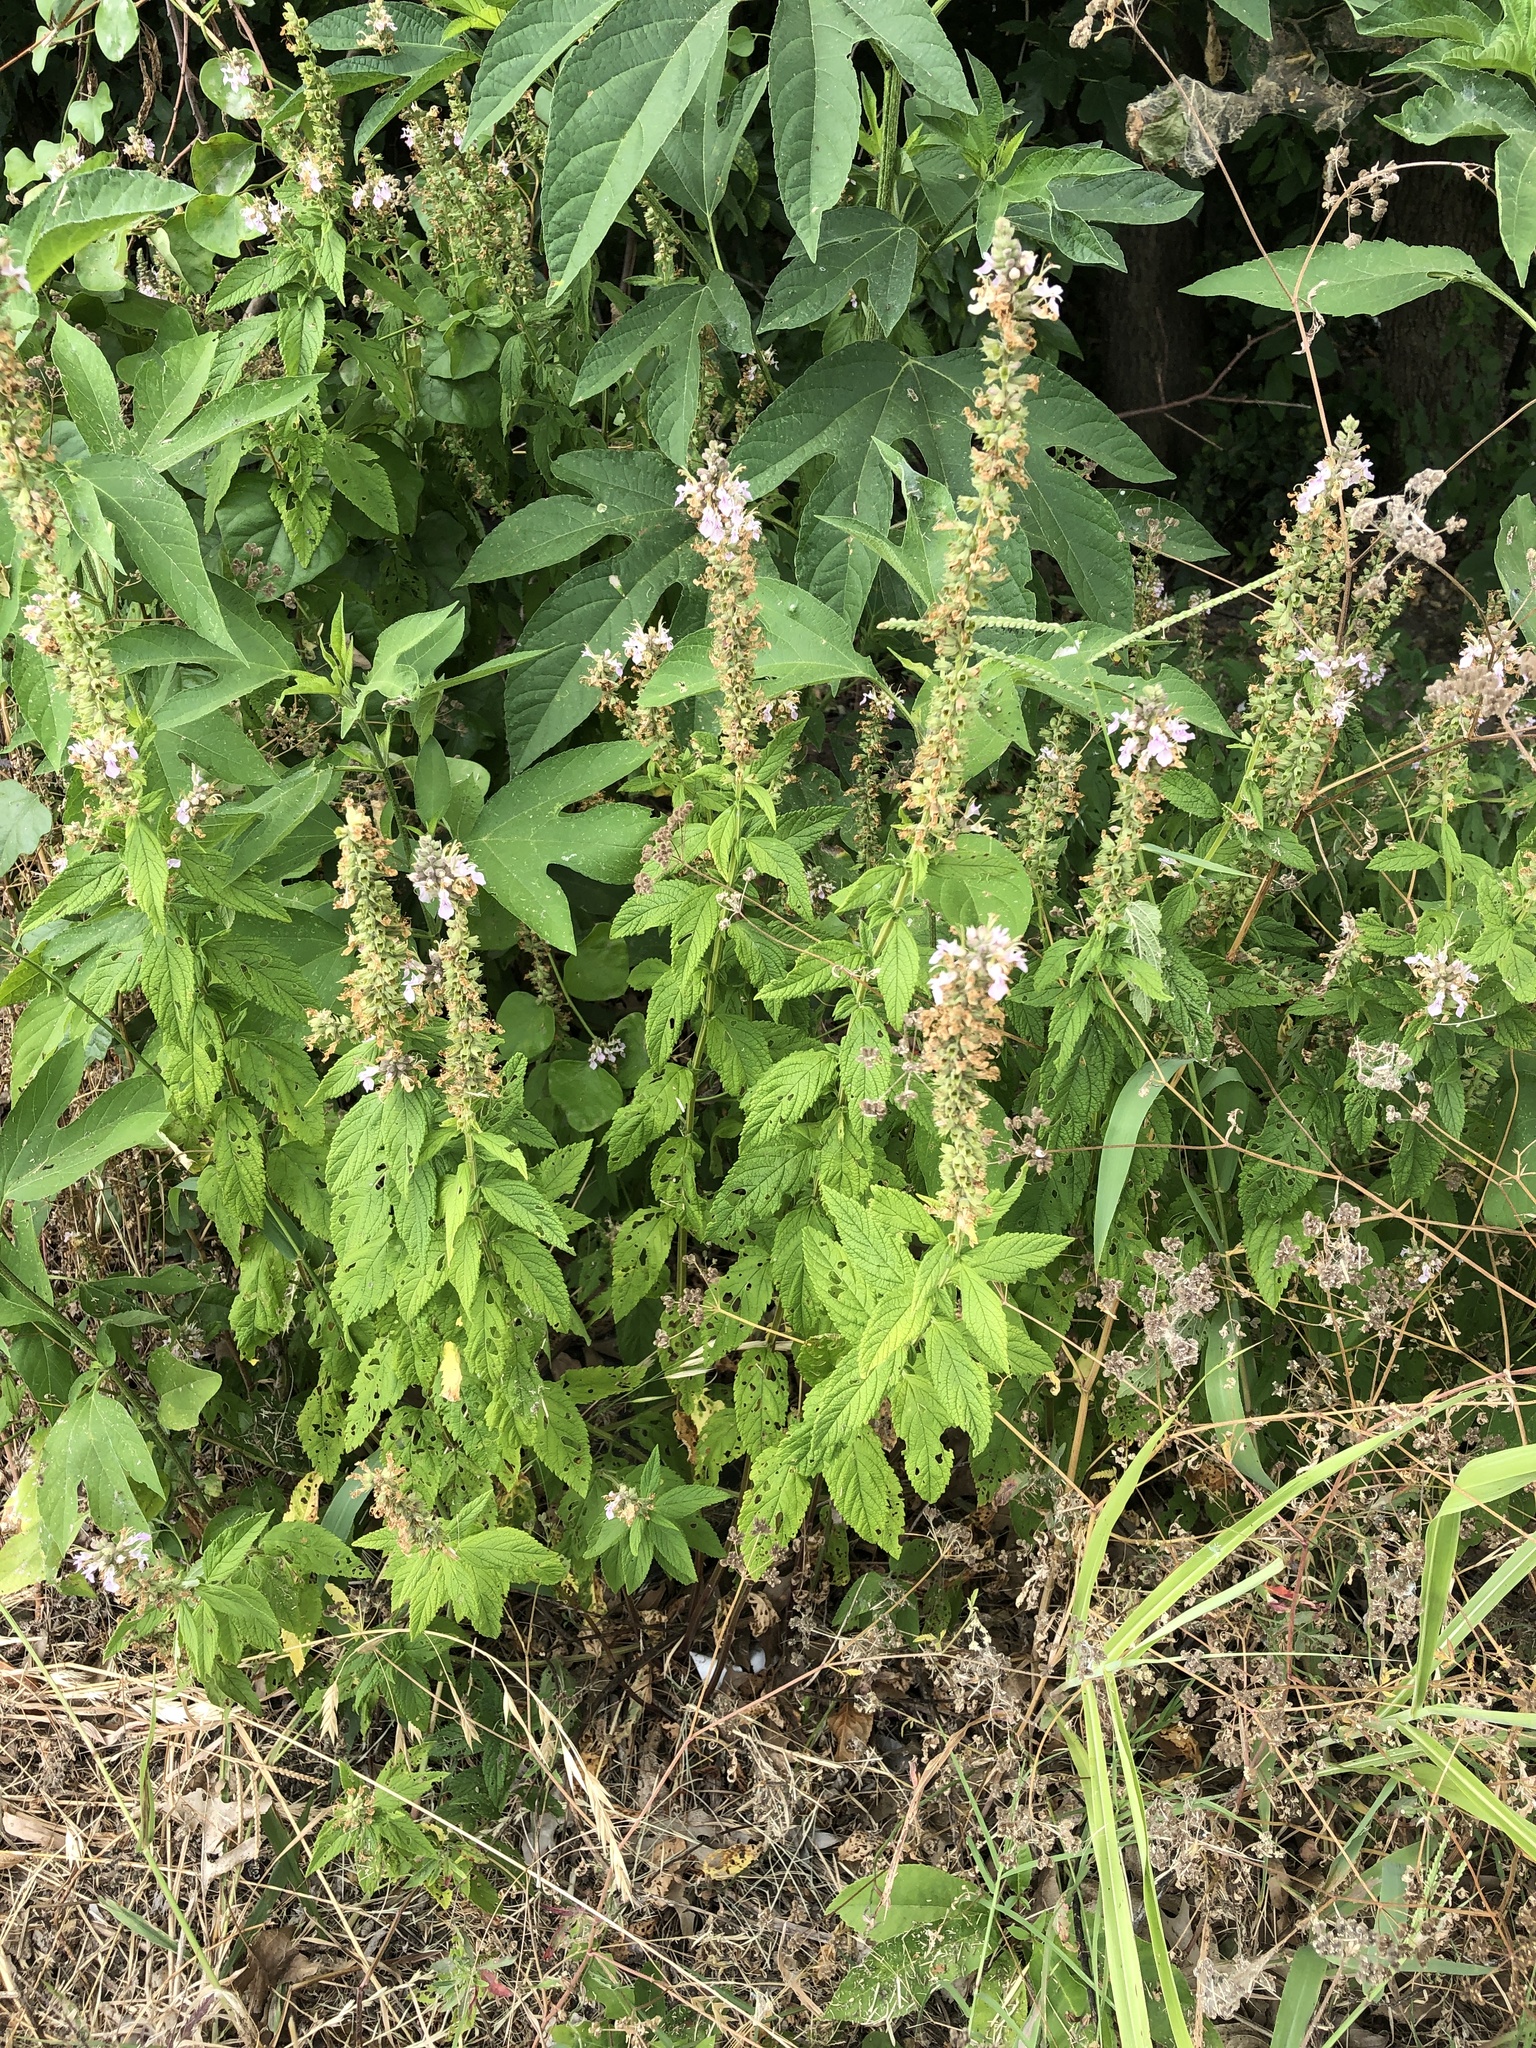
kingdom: Plantae
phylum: Tracheophyta
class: Magnoliopsida
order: Lamiales
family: Lamiaceae
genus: Teucrium
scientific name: Teucrium canadense
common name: American germander
